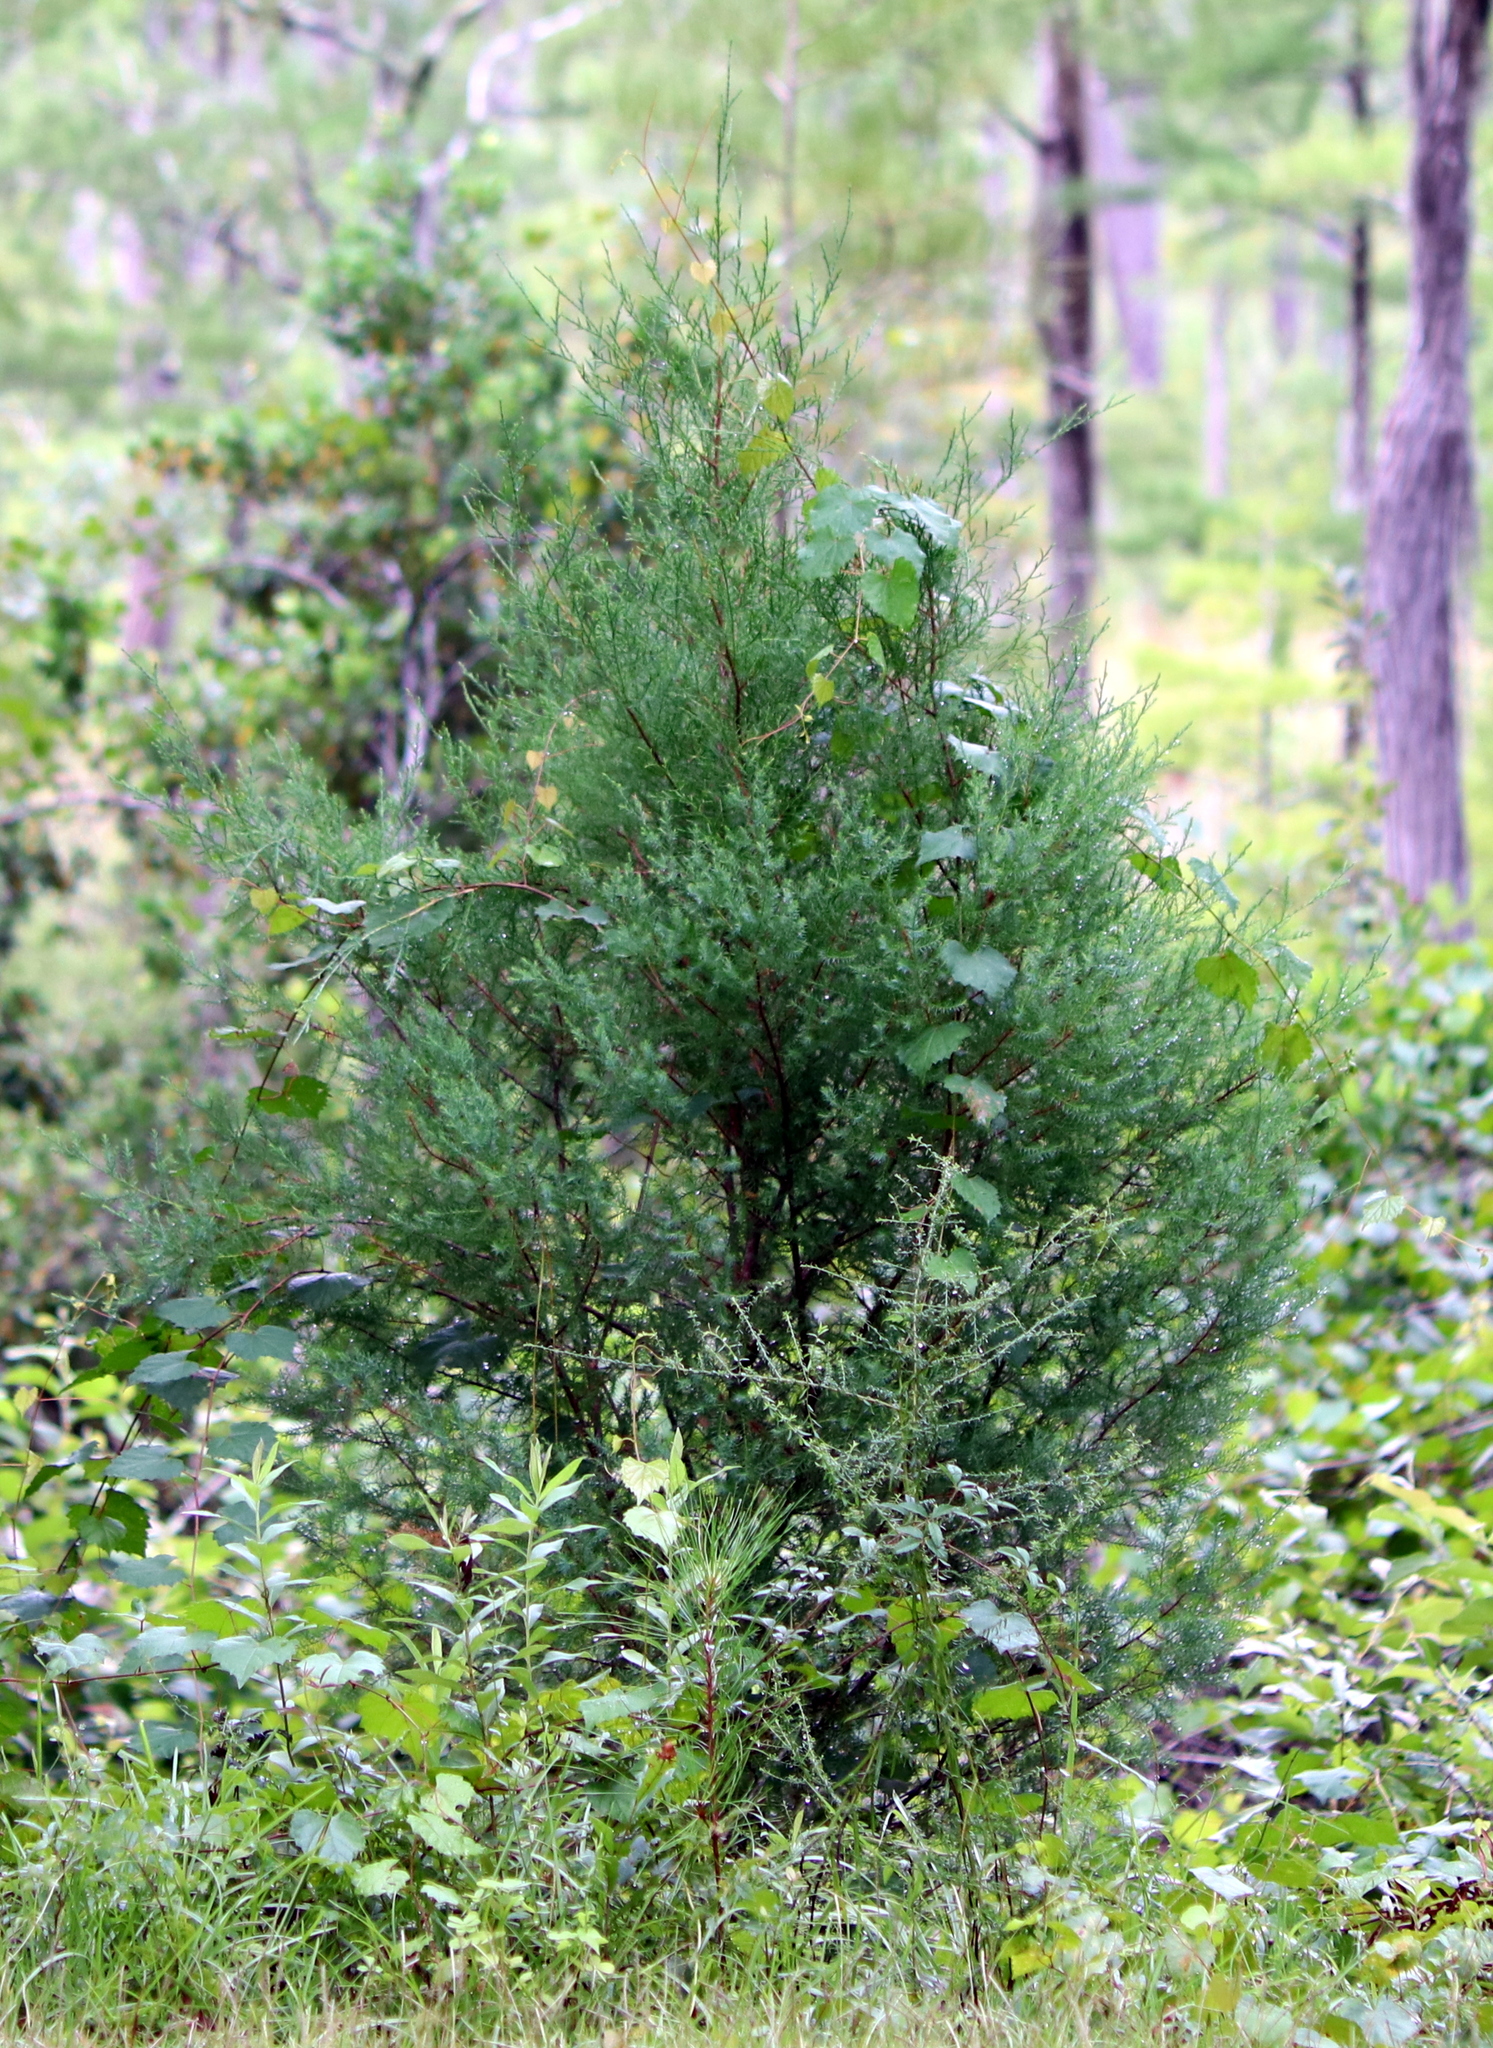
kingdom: Plantae
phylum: Tracheophyta
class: Pinopsida
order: Pinales
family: Cupressaceae
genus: Juniperus
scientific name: Juniperus virginiana
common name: Red juniper
